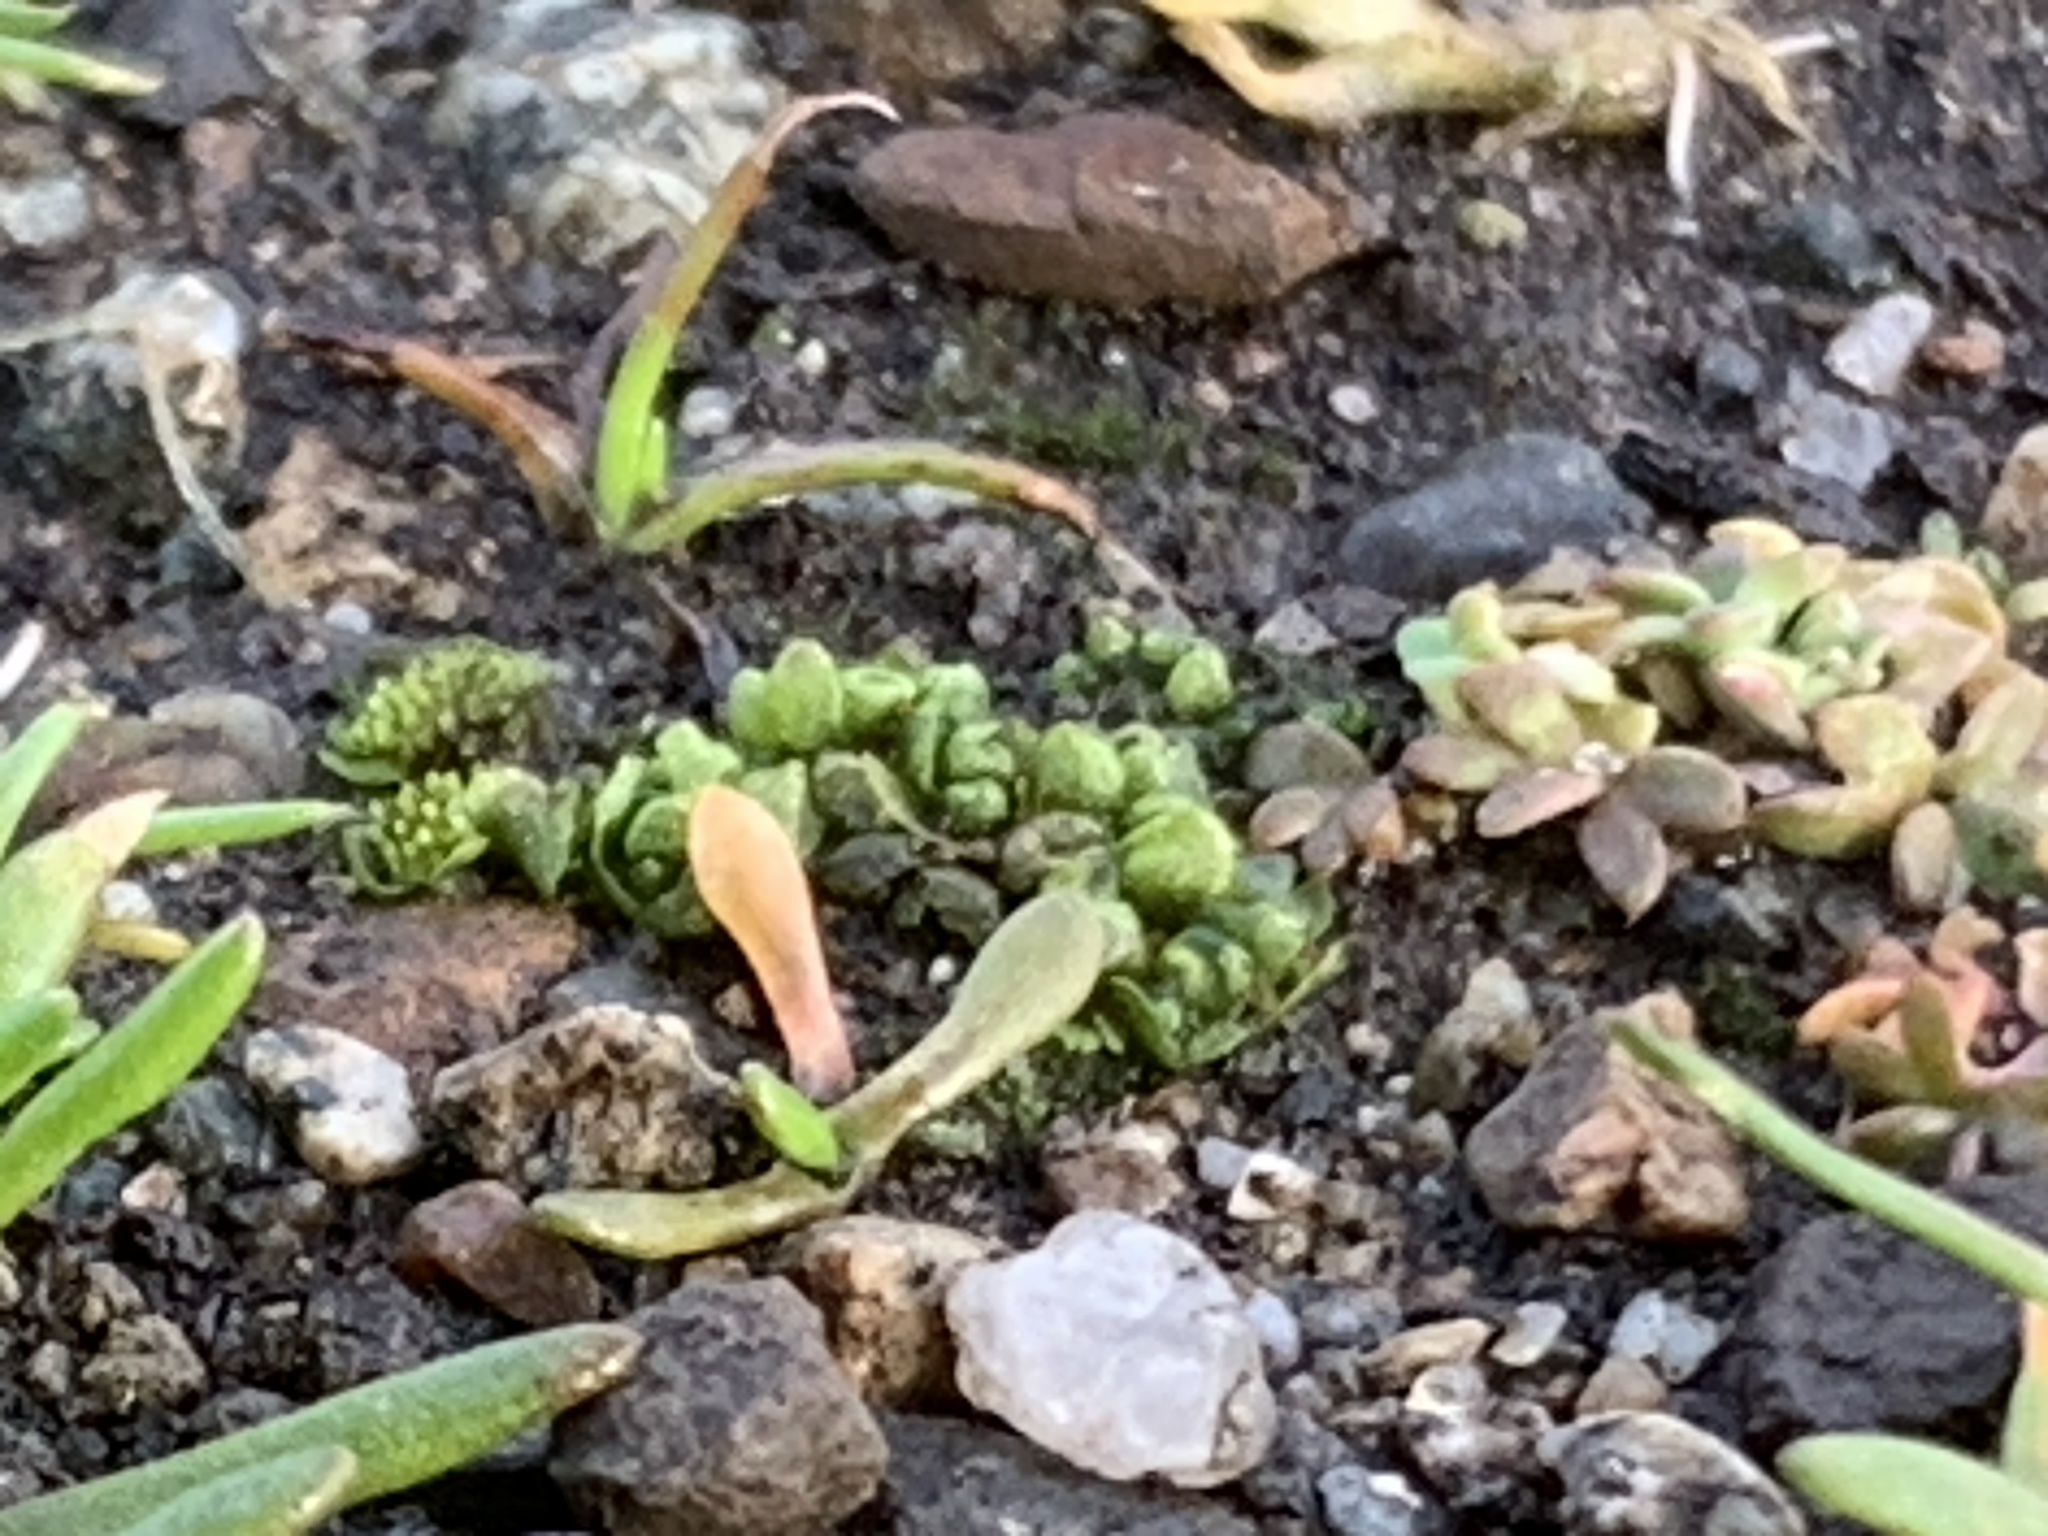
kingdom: Plantae
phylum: Marchantiophyta
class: Marchantiopsida
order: Sphaerocarpales
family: Sphaerocarpaceae
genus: Sphaerocarpos
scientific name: Sphaerocarpos texanus
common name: Texas balloonwort
